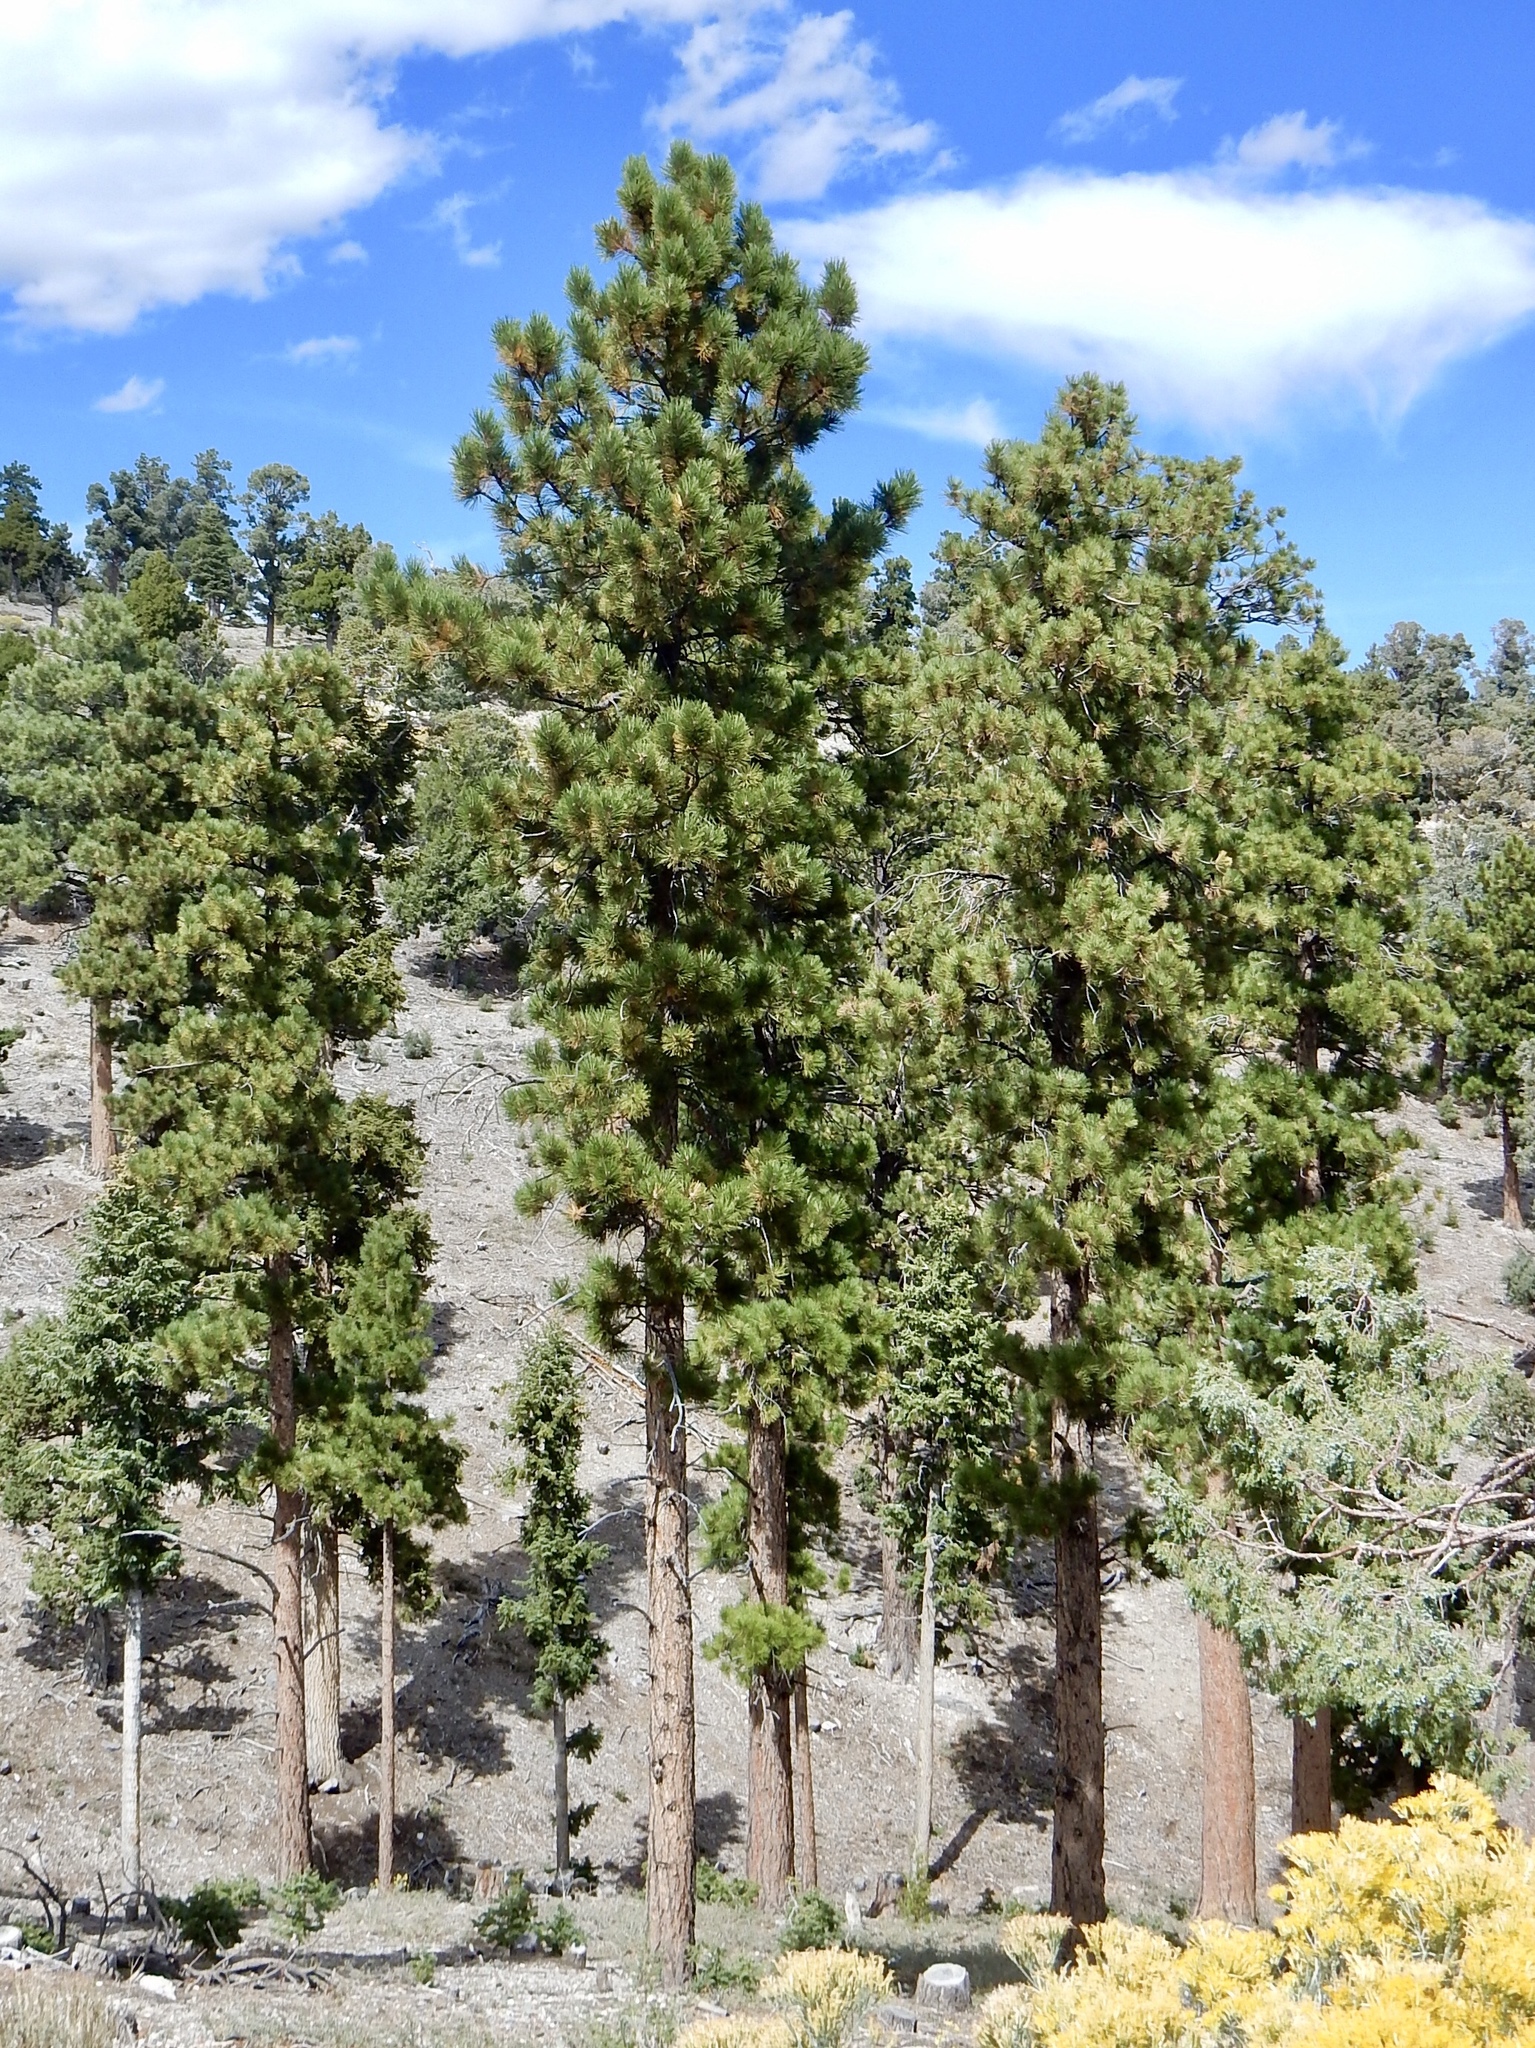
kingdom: Plantae
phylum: Tracheophyta
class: Pinopsida
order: Pinales
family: Pinaceae
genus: Pinus
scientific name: Pinus ponderosa
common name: Western yellow-pine
